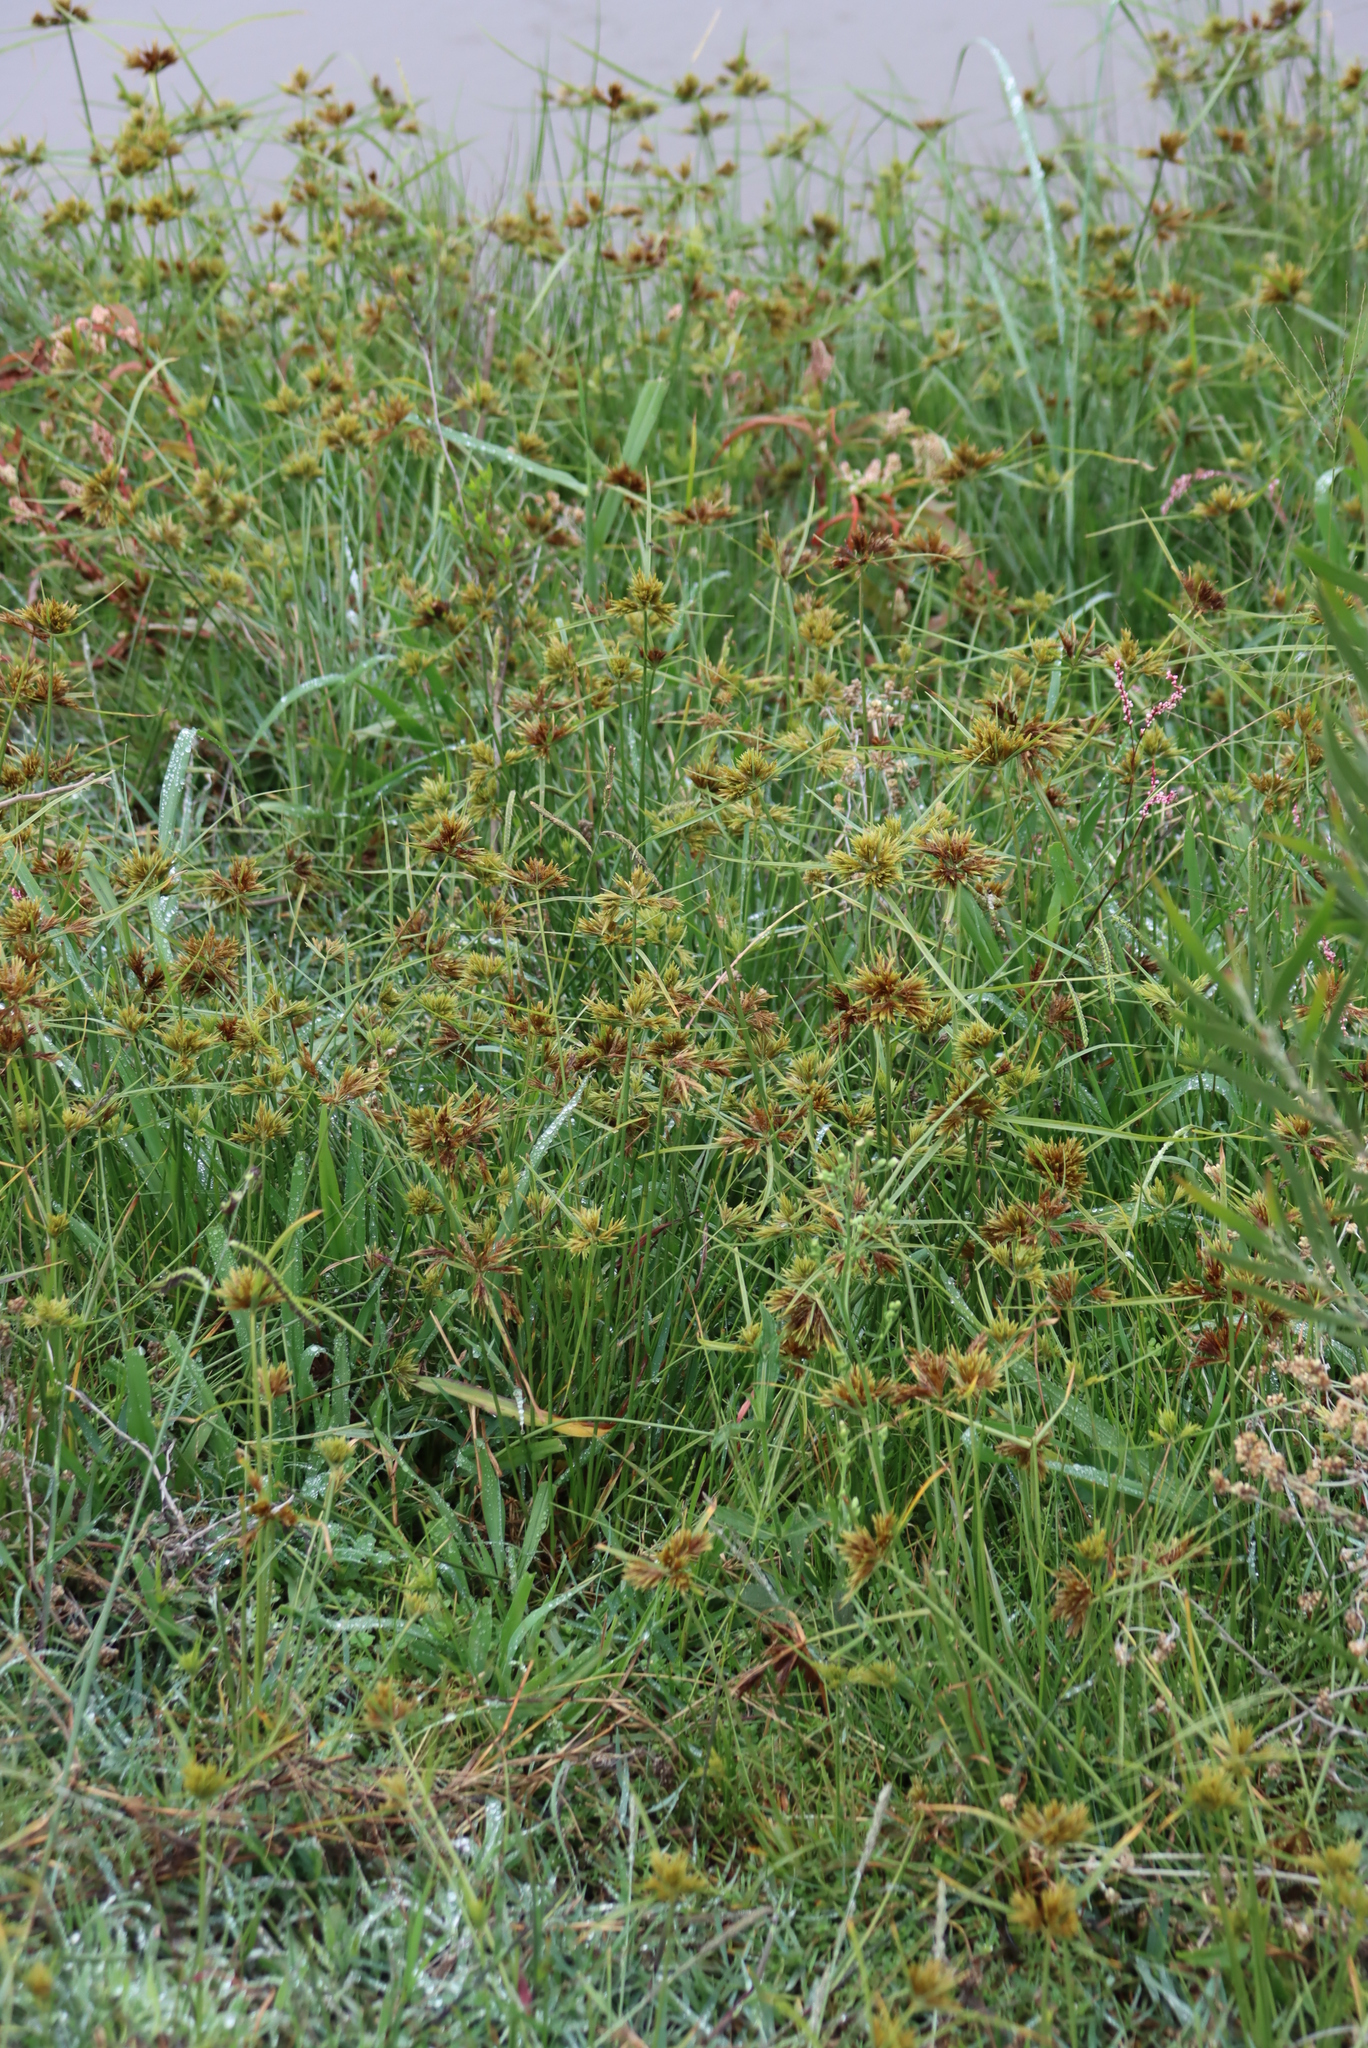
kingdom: Plantae
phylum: Tracheophyta
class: Liliopsida
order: Poales
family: Cyperaceae
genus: Cyperus
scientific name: Cyperus polystachyos
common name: Bunchy flat sedge
